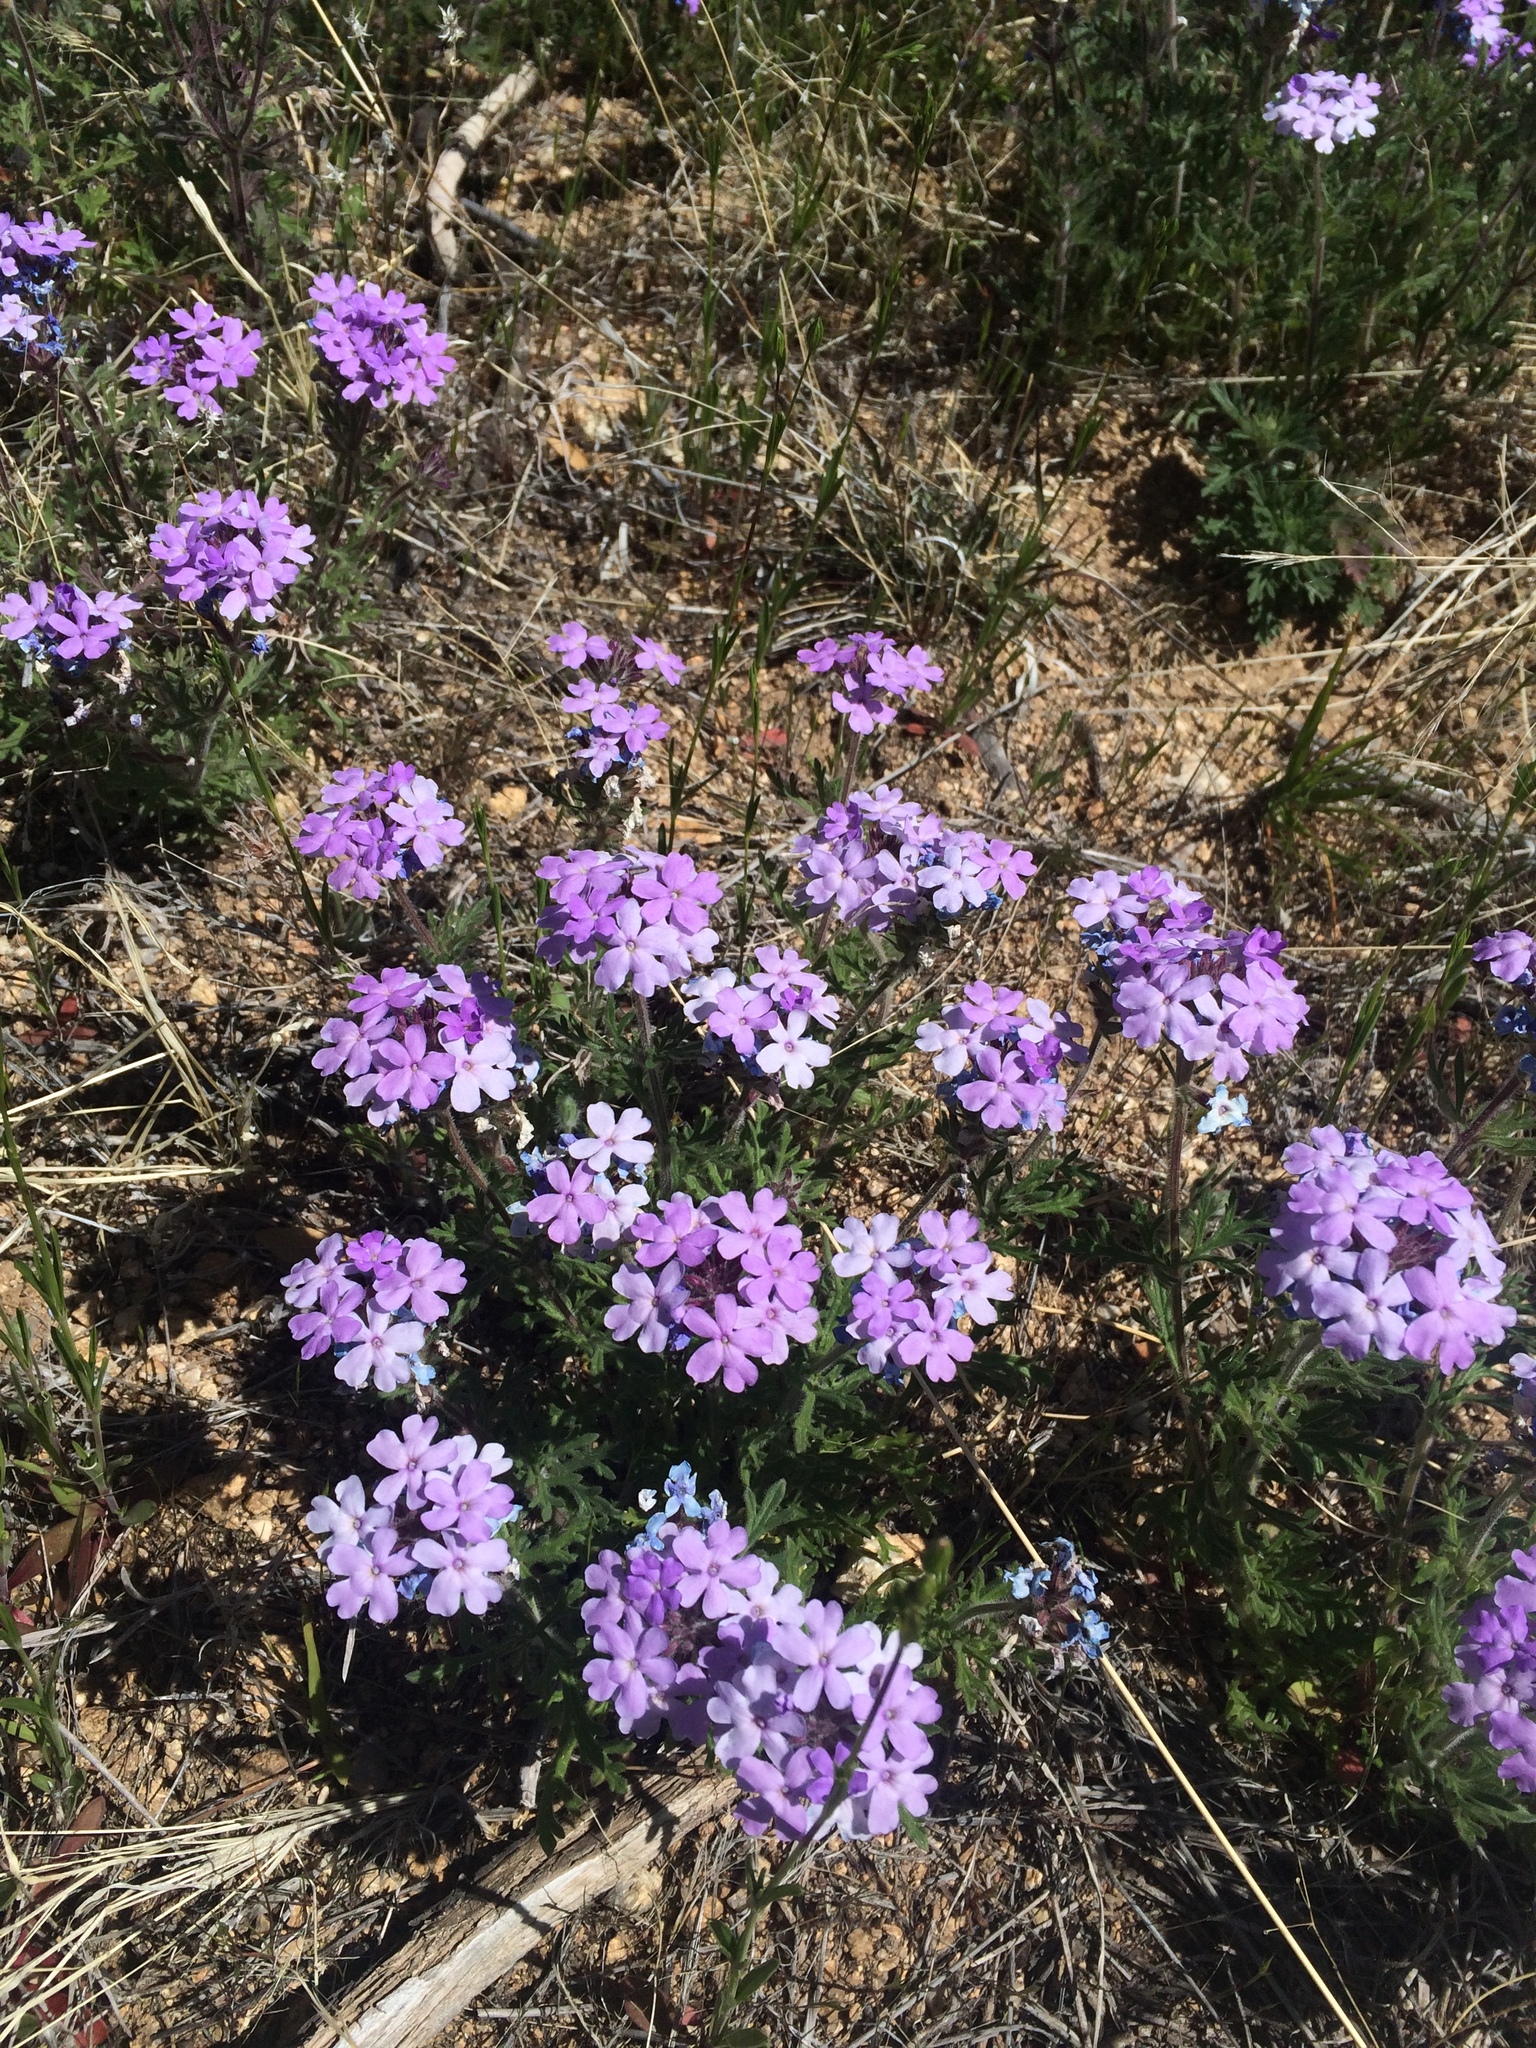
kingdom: Plantae
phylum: Tracheophyta
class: Magnoliopsida
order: Lamiales
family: Verbenaceae
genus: Verbena
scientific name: Verbena bipinnatifida
